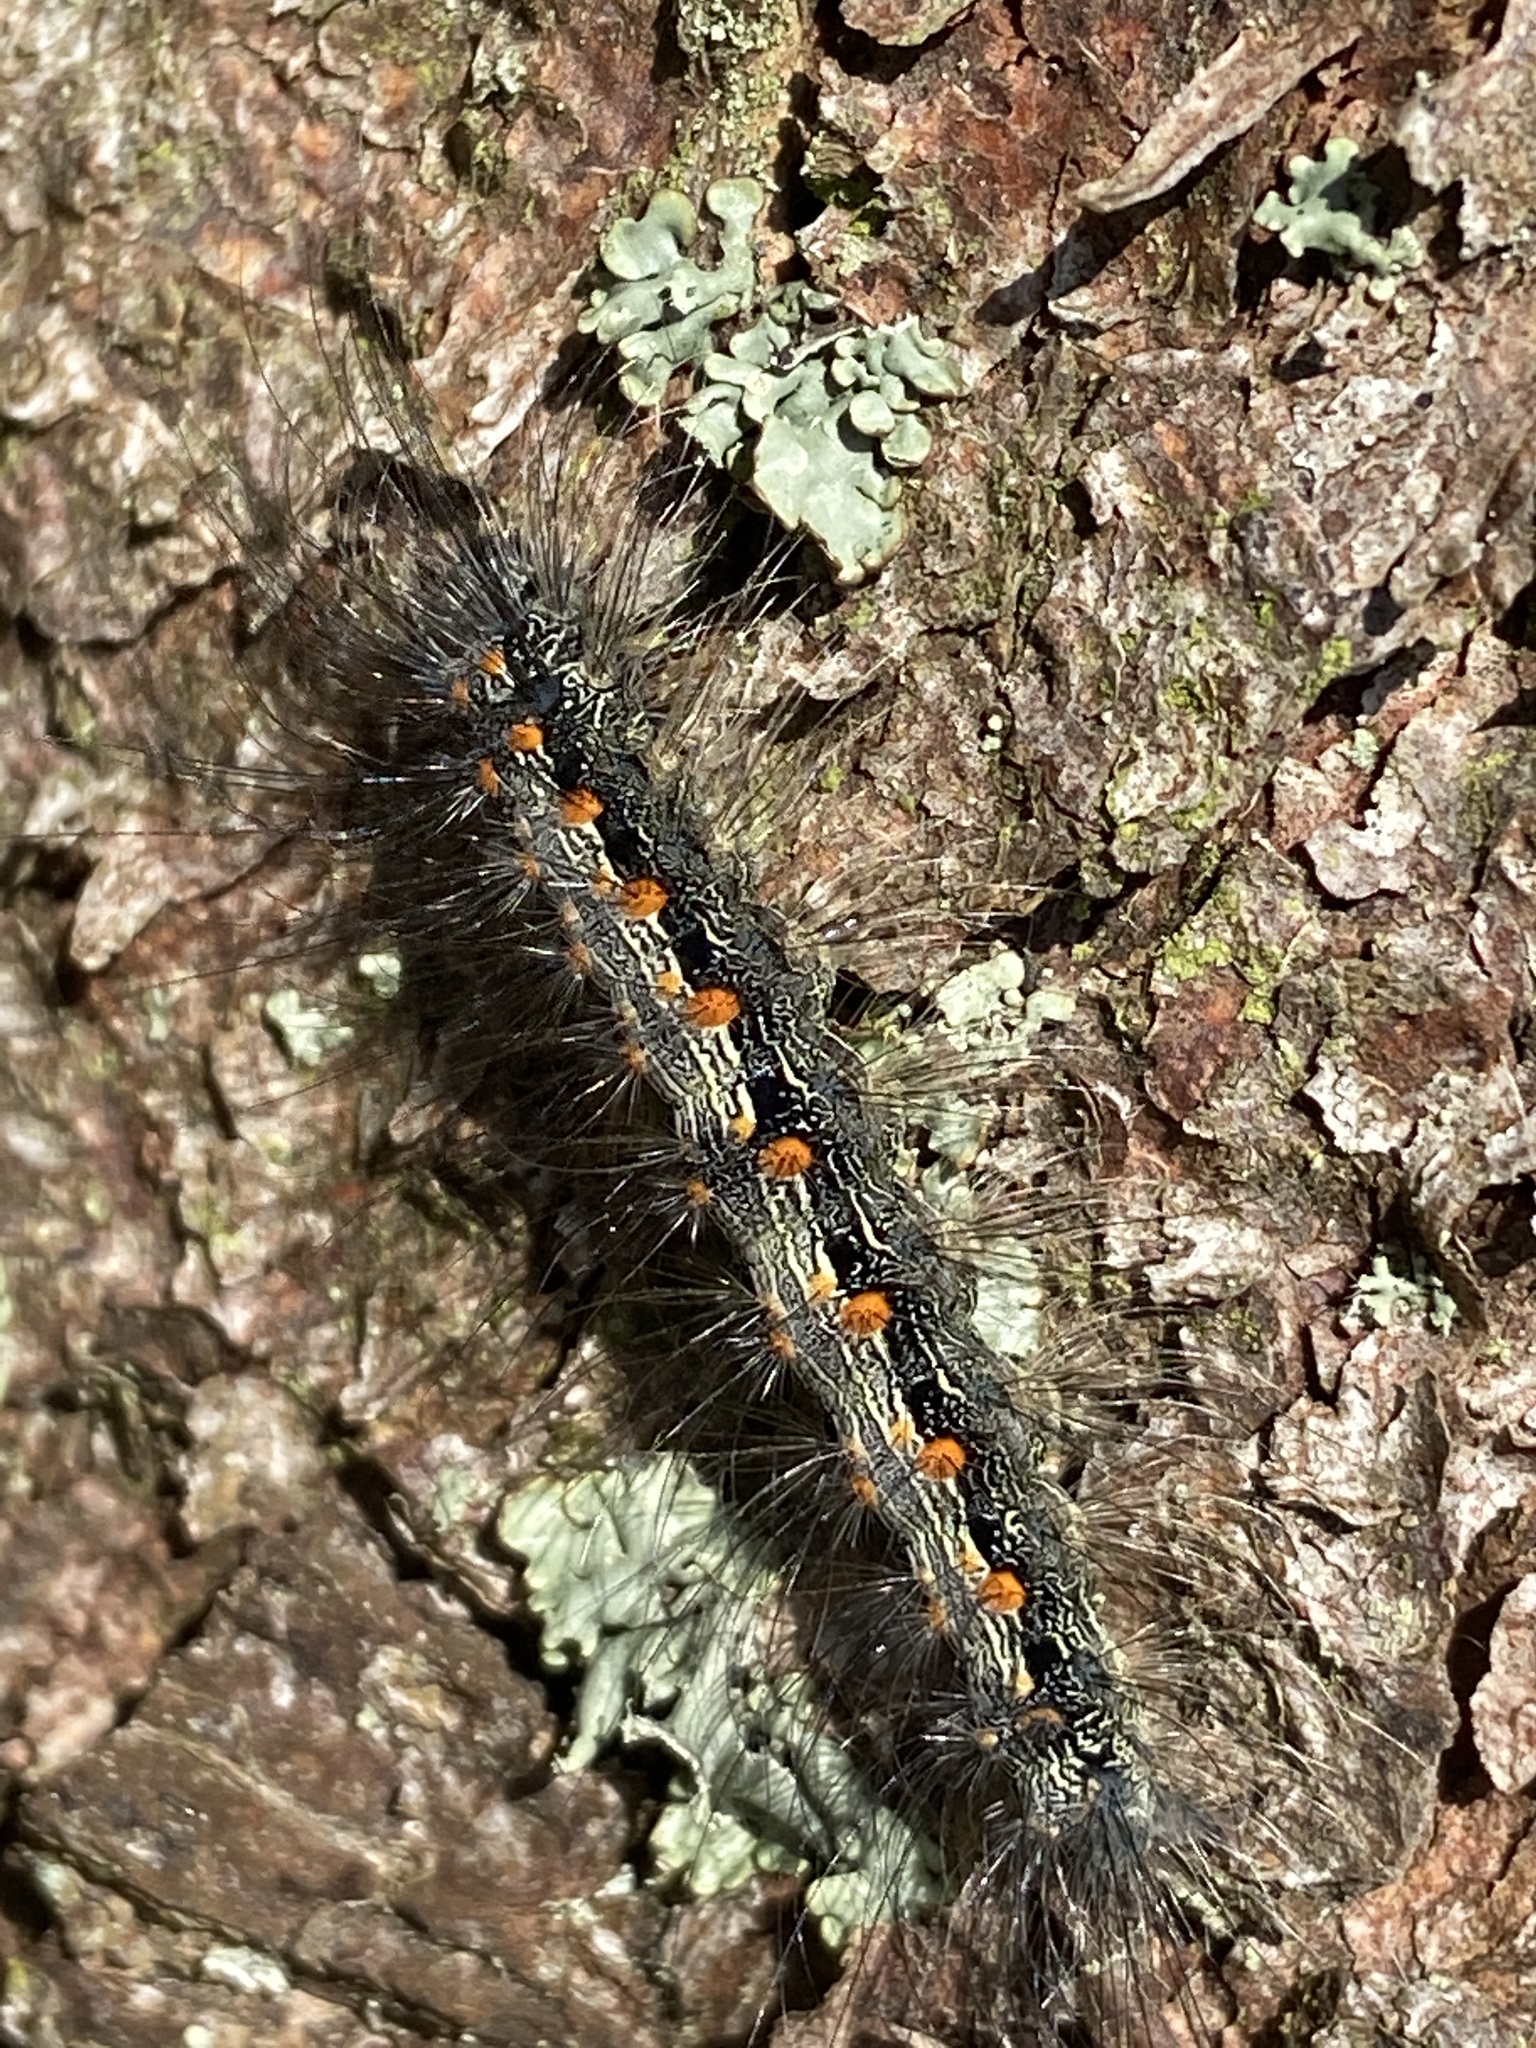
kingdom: Animalia
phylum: Arthropoda
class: Insecta
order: Lepidoptera
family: Erebidae
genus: Lithosia
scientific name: Lithosia quadra
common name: Four-spotted footman
